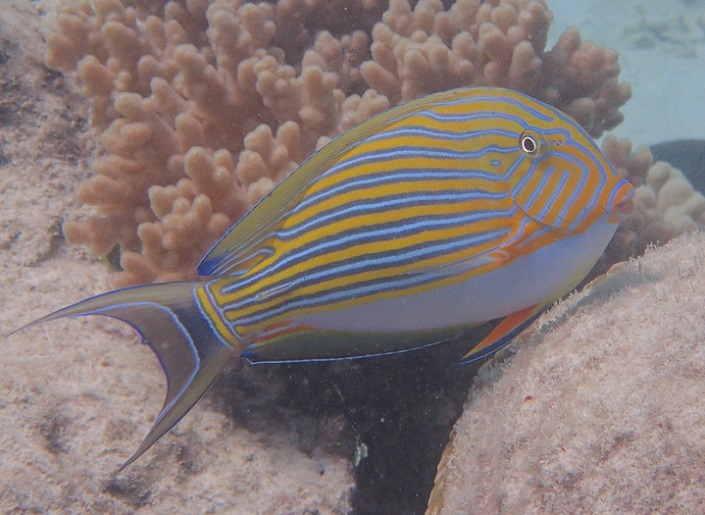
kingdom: Animalia
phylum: Chordata
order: Perciformes
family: Acanthuridae
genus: Acanthurus
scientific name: Acanthurus lineatus
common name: Striped surgeonfish
